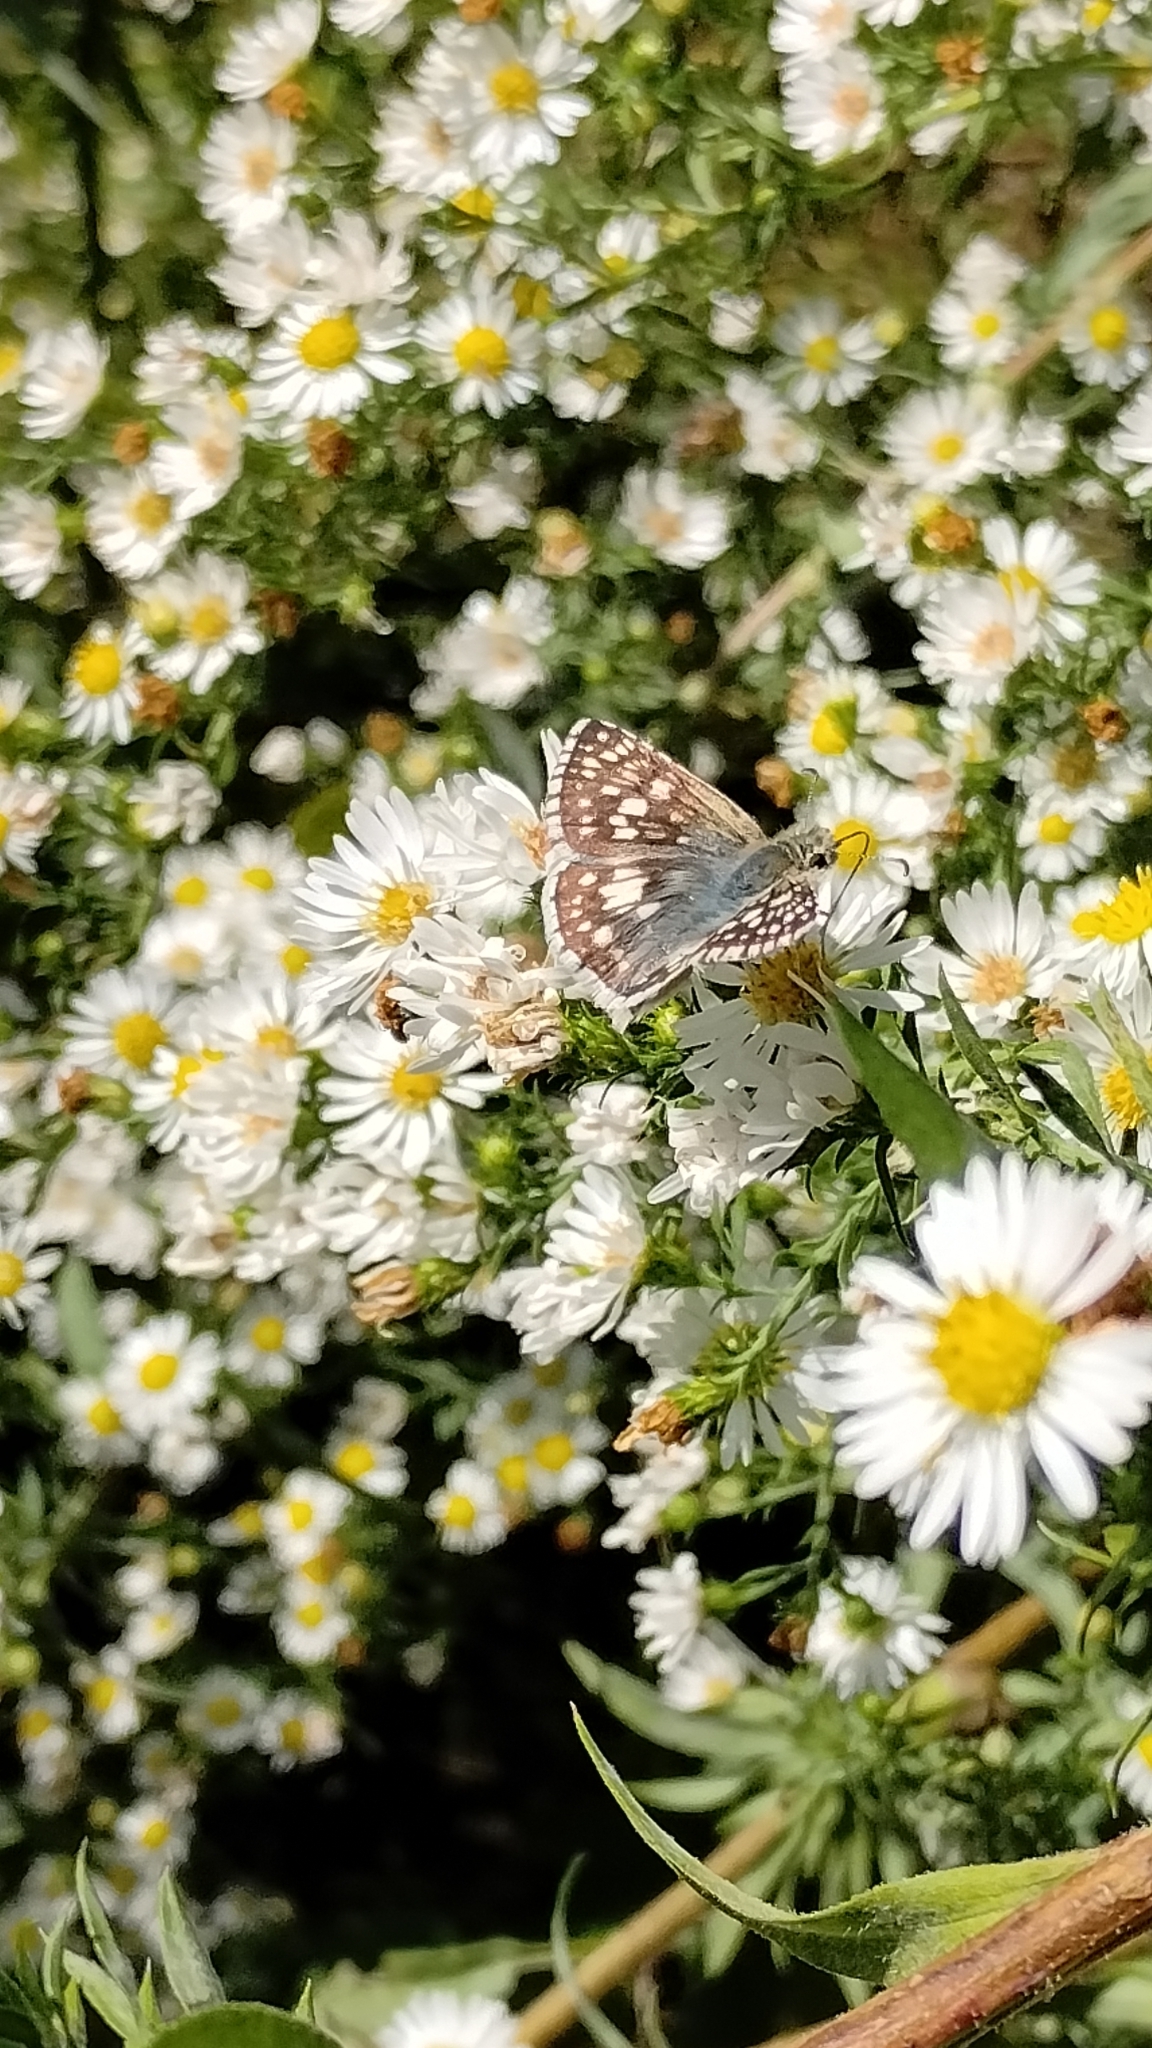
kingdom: Animalia
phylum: Arthropoda
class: Insecta
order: Lepidoptera
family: Hesperiidae
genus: Burnsius
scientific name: Burnsius communis
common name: Common checkered-skipper
